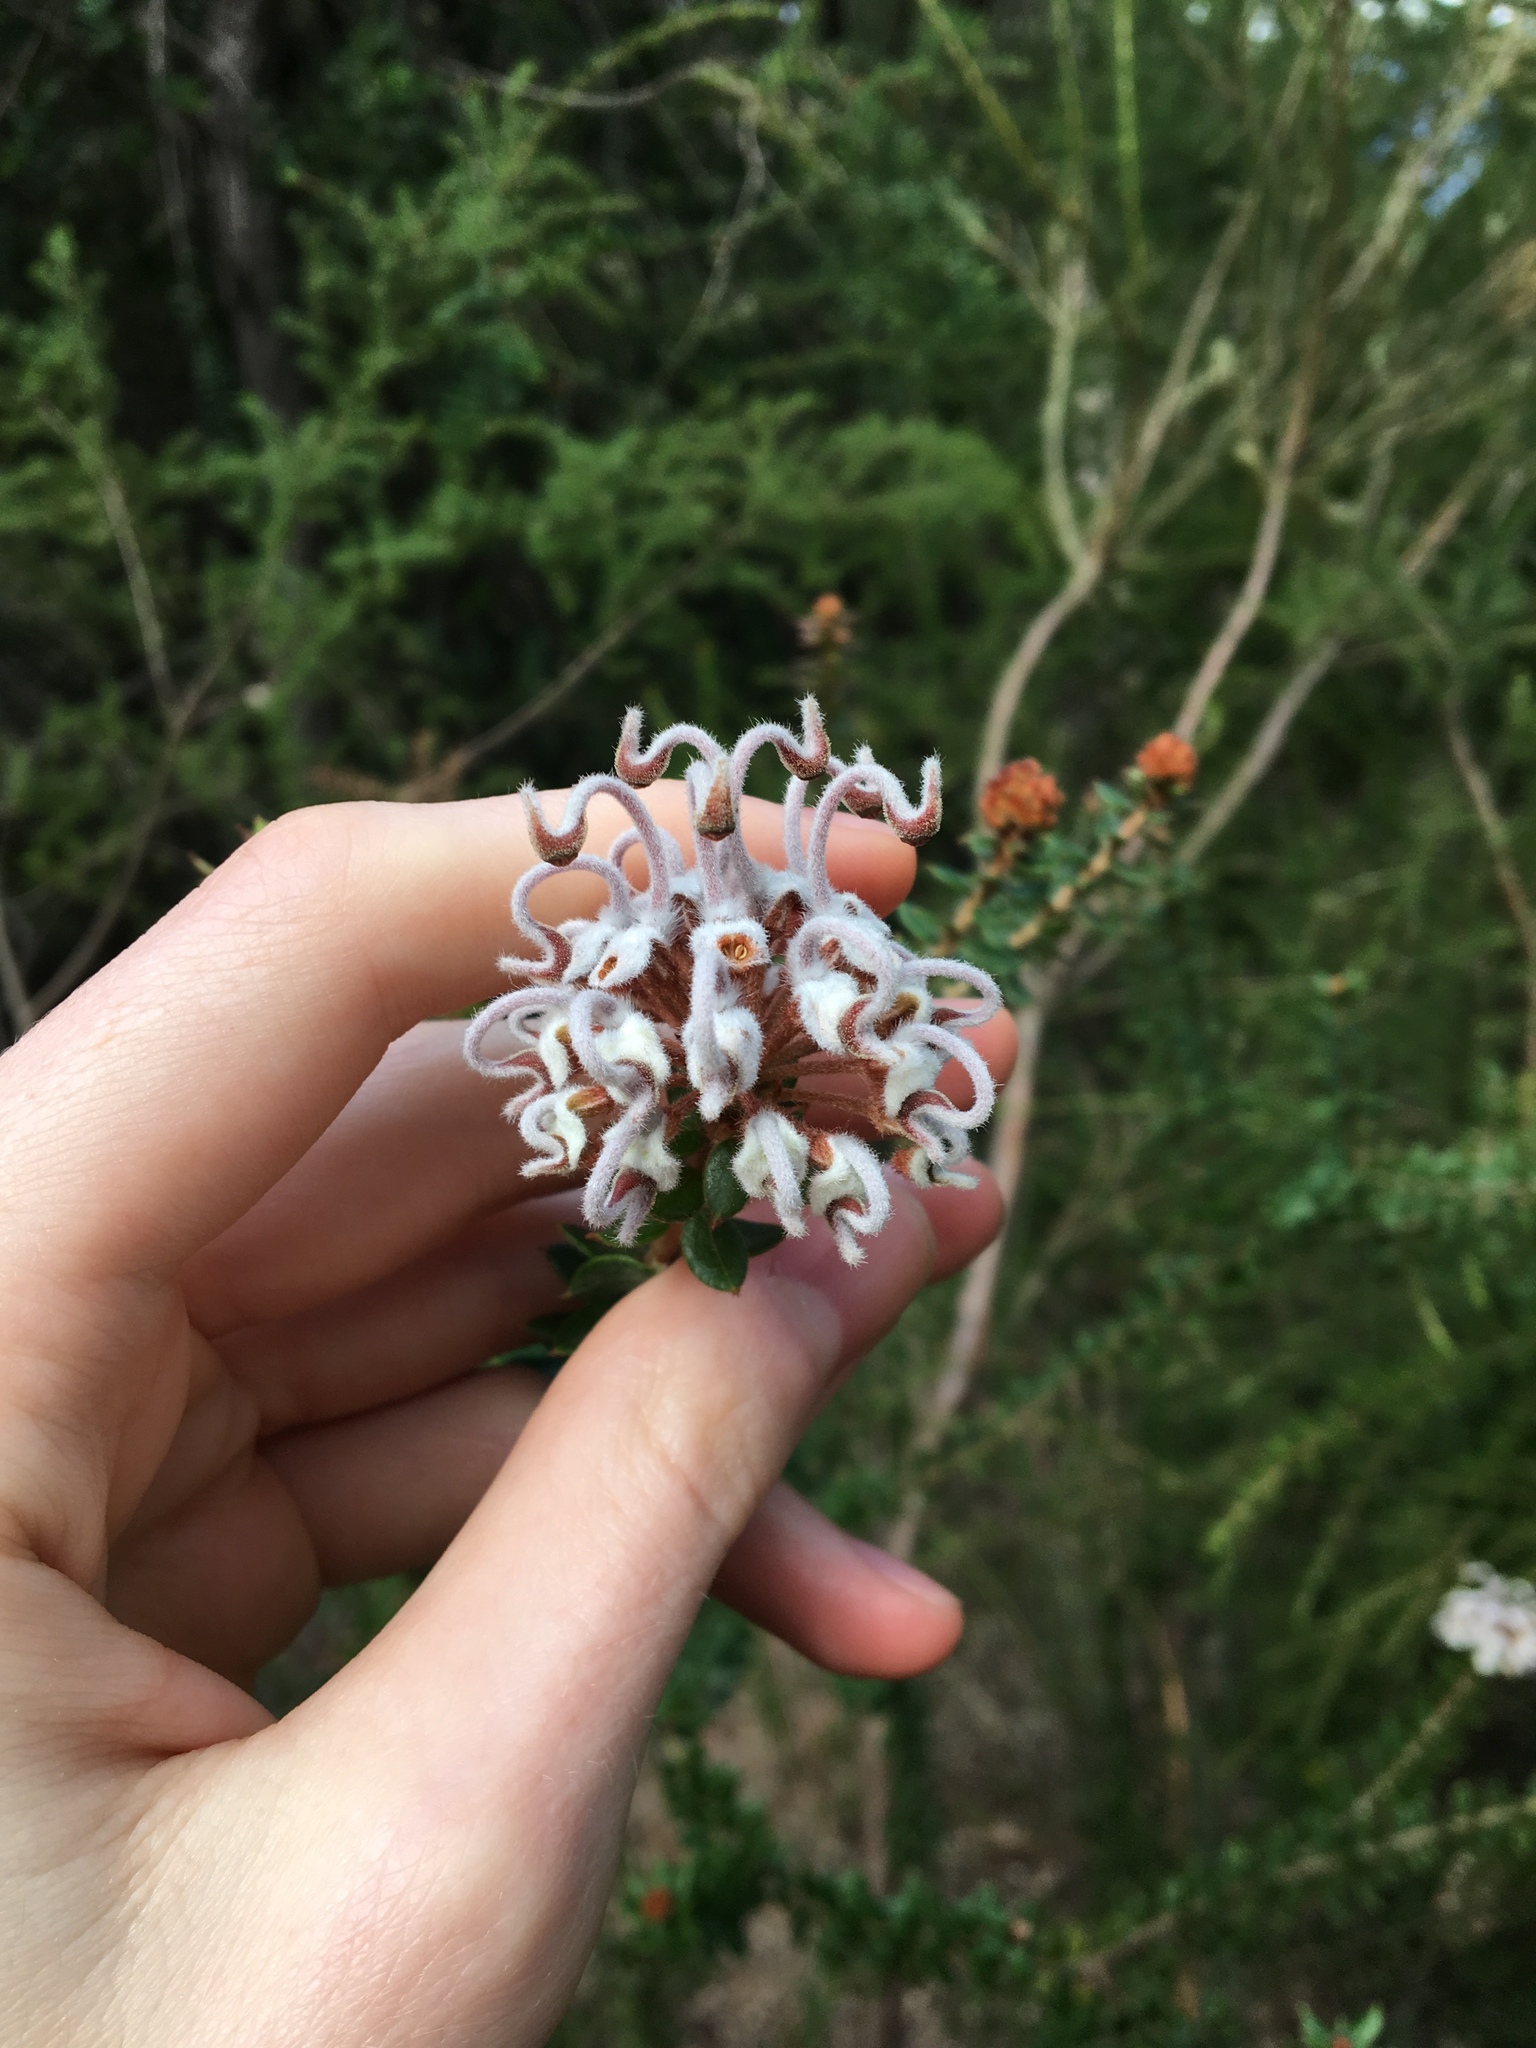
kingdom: Plantae
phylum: Tracheophyta
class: Magnoliopsida
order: Proteales
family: Proteaceae
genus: Grevillea
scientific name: Grevillea buxifolia
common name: Grey spiderflower
